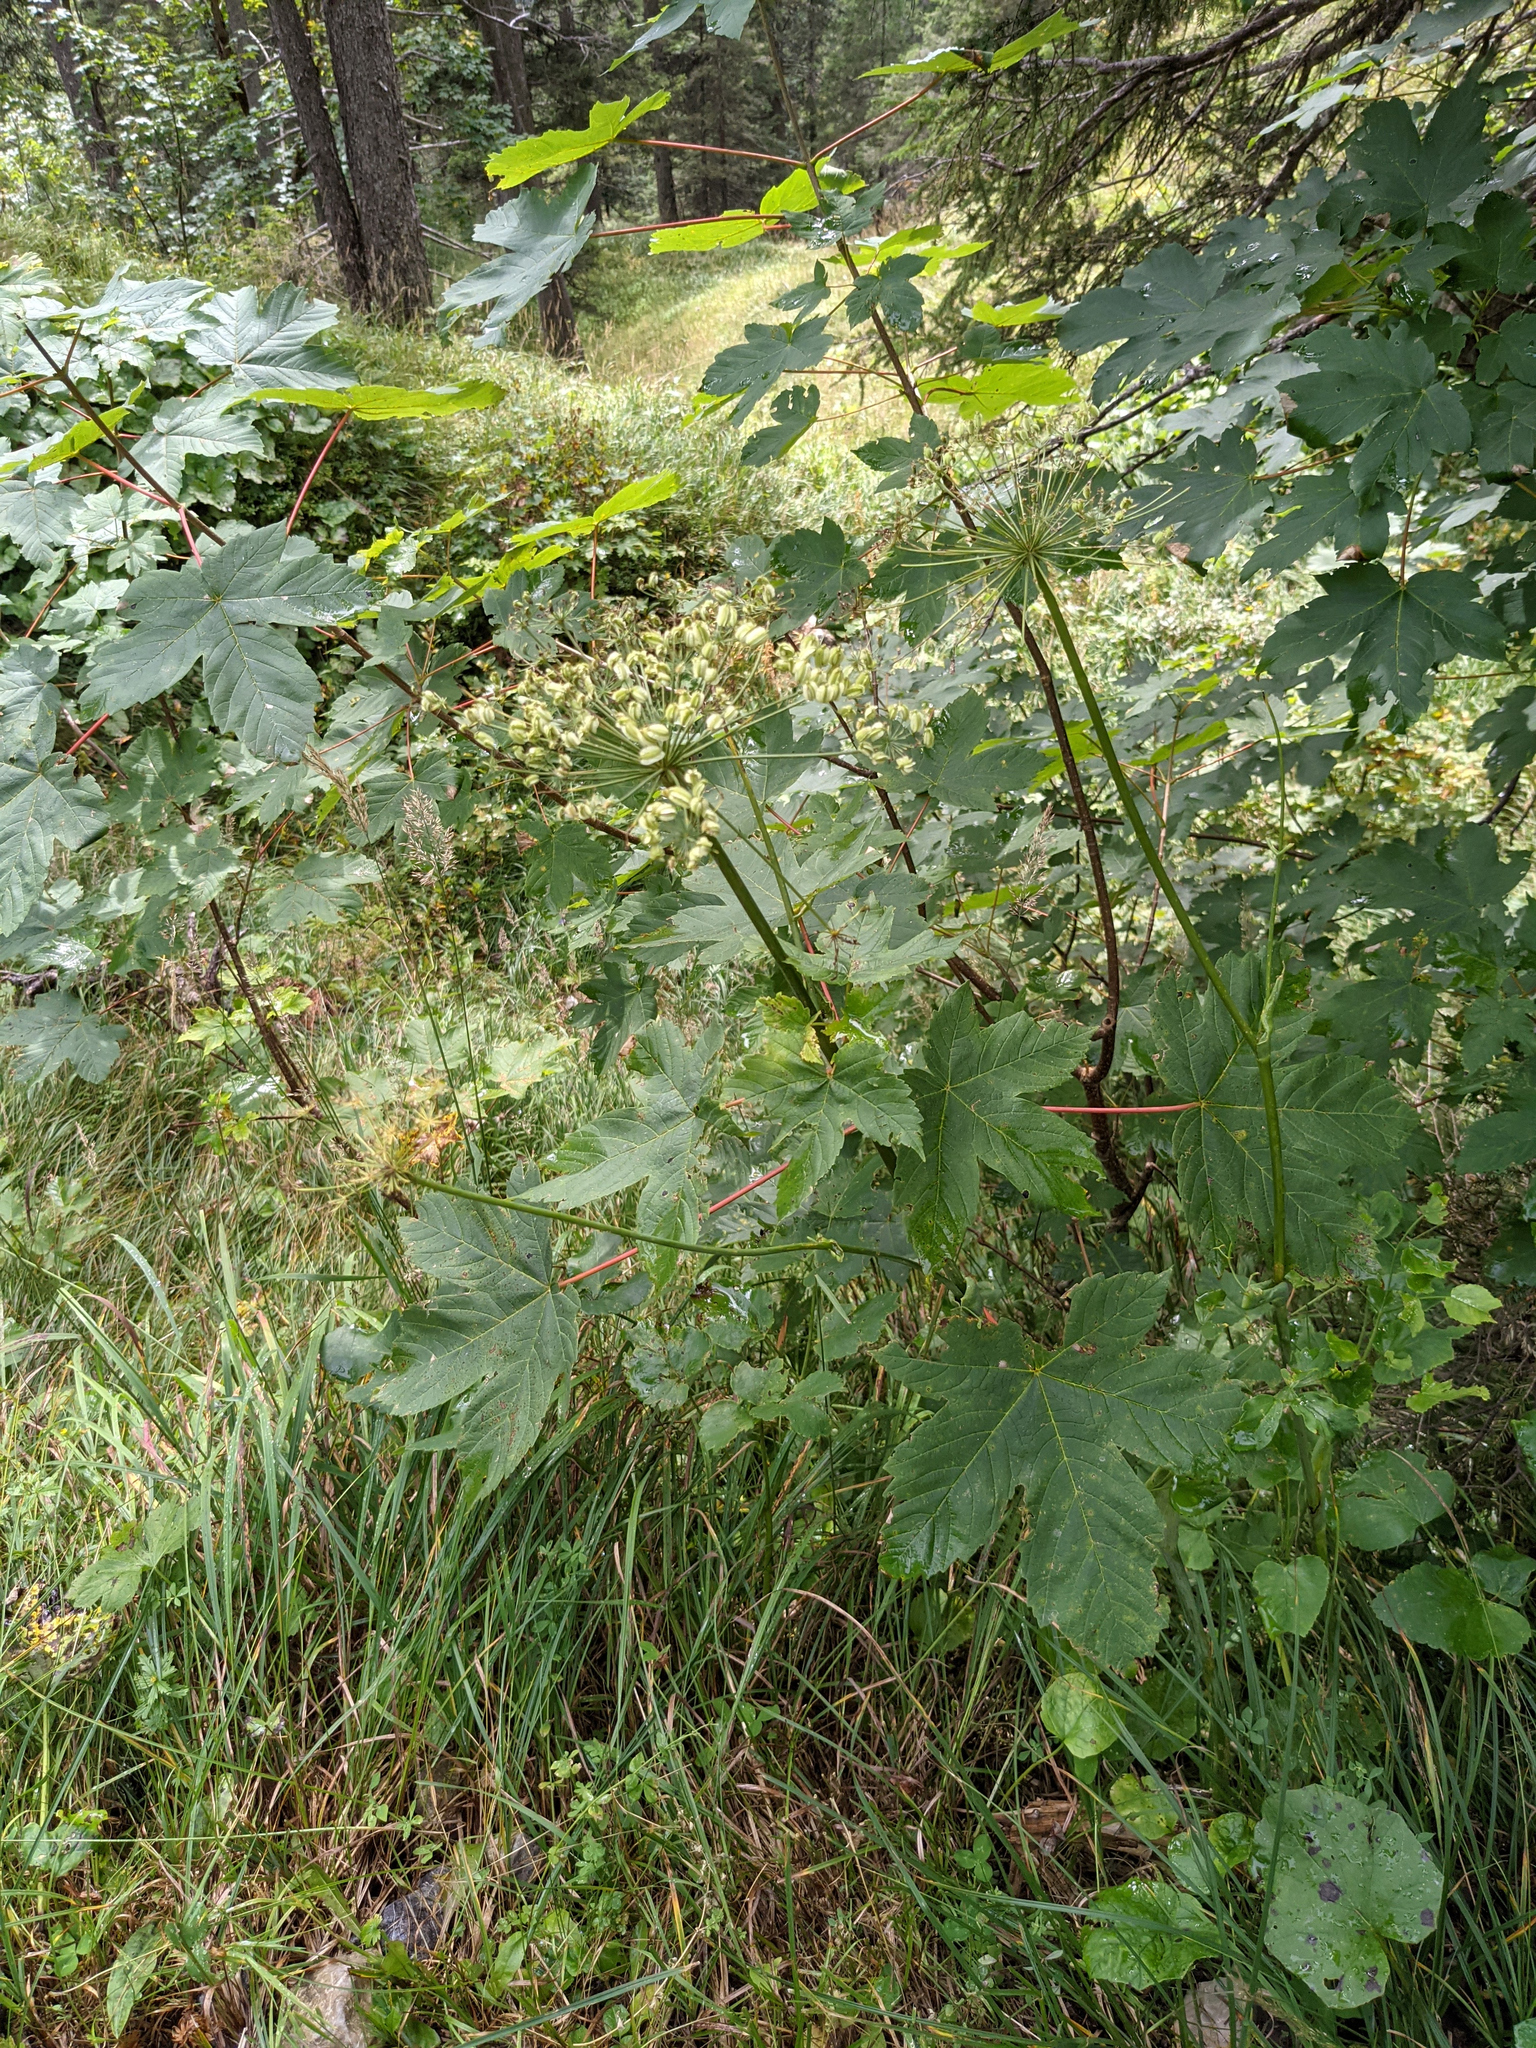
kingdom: Plantae
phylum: Tracheophyta
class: Magnoliopsida
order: Sapindales
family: Sapindaceae
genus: Acer
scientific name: Acer pseudoplatanus
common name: Sycamore
